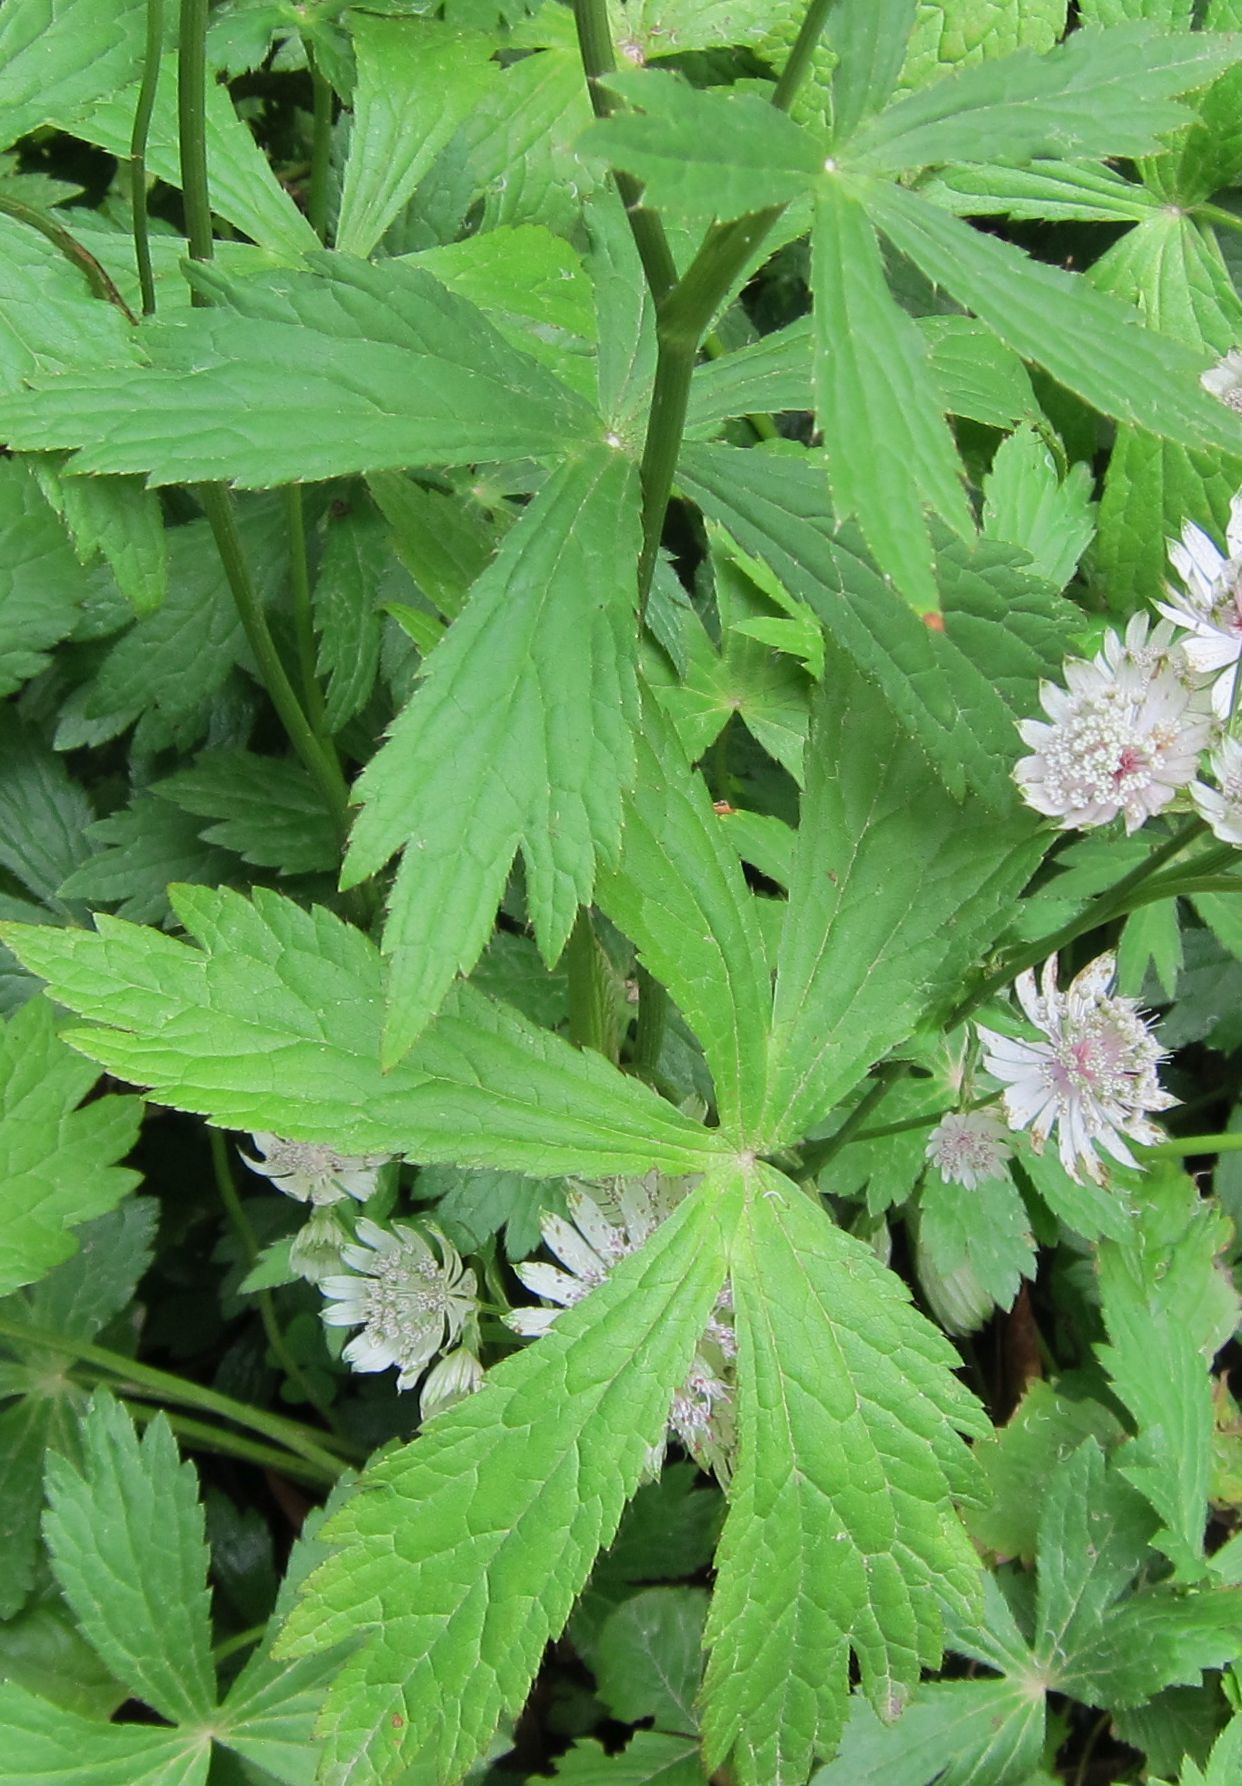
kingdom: Plantae
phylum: Tracheophyta
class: Magnoliopsida
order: Apiales
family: Apiaceae
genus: Astrantia
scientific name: Astrantia major
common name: Greater masterwort
